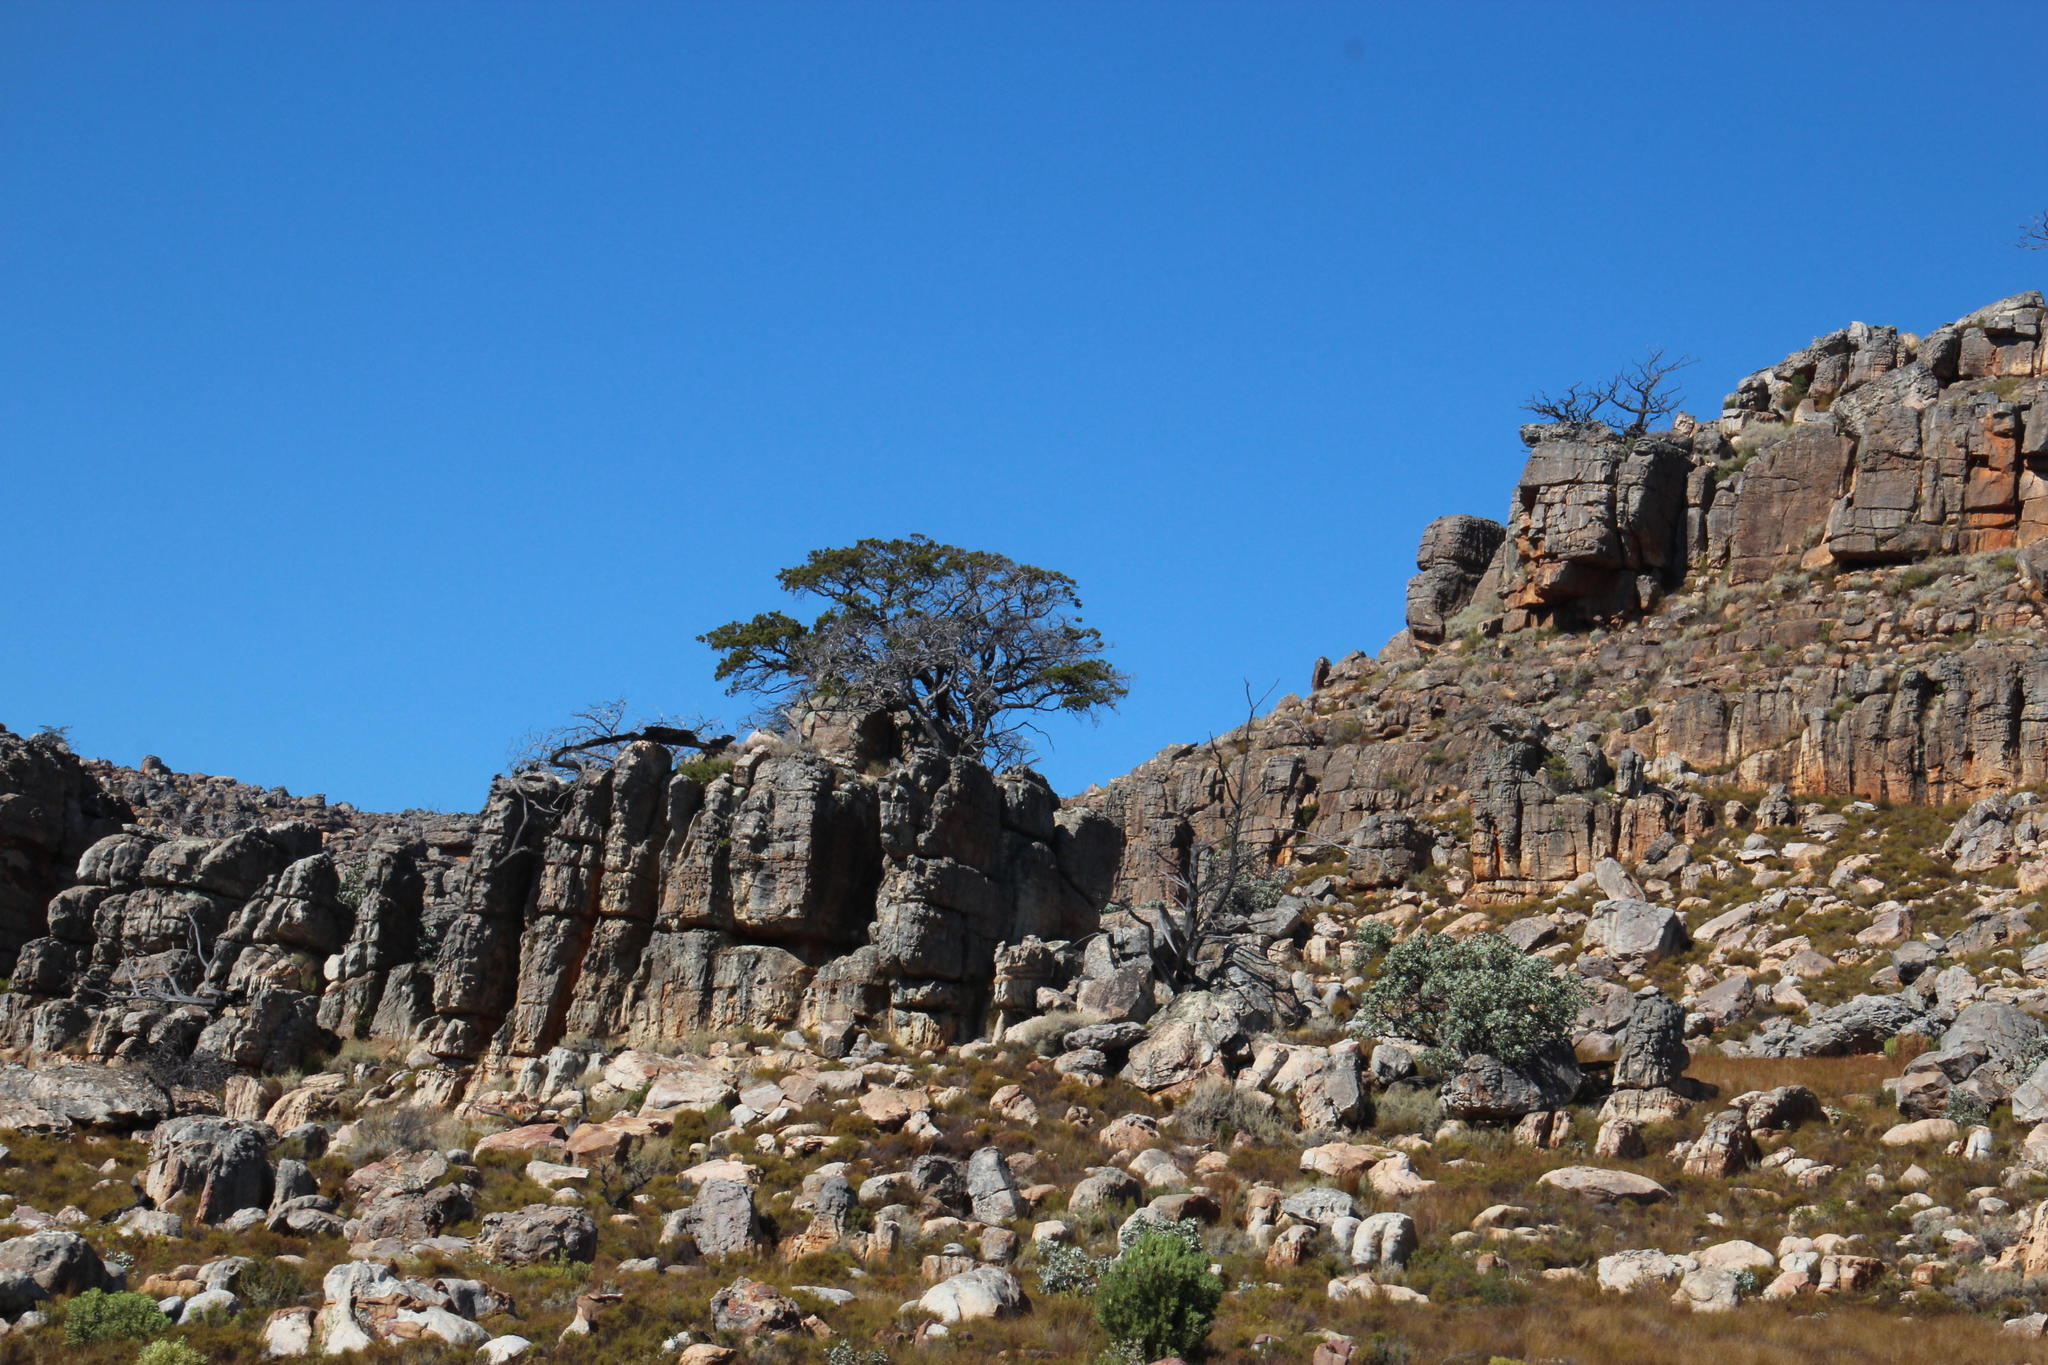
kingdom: Plantae
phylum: Tracheophyta
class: Pinopsida
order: Pinales
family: Cupressaceae
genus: Widdringtonia
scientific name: Widdringtonia nodiflora
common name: Cape cypress
